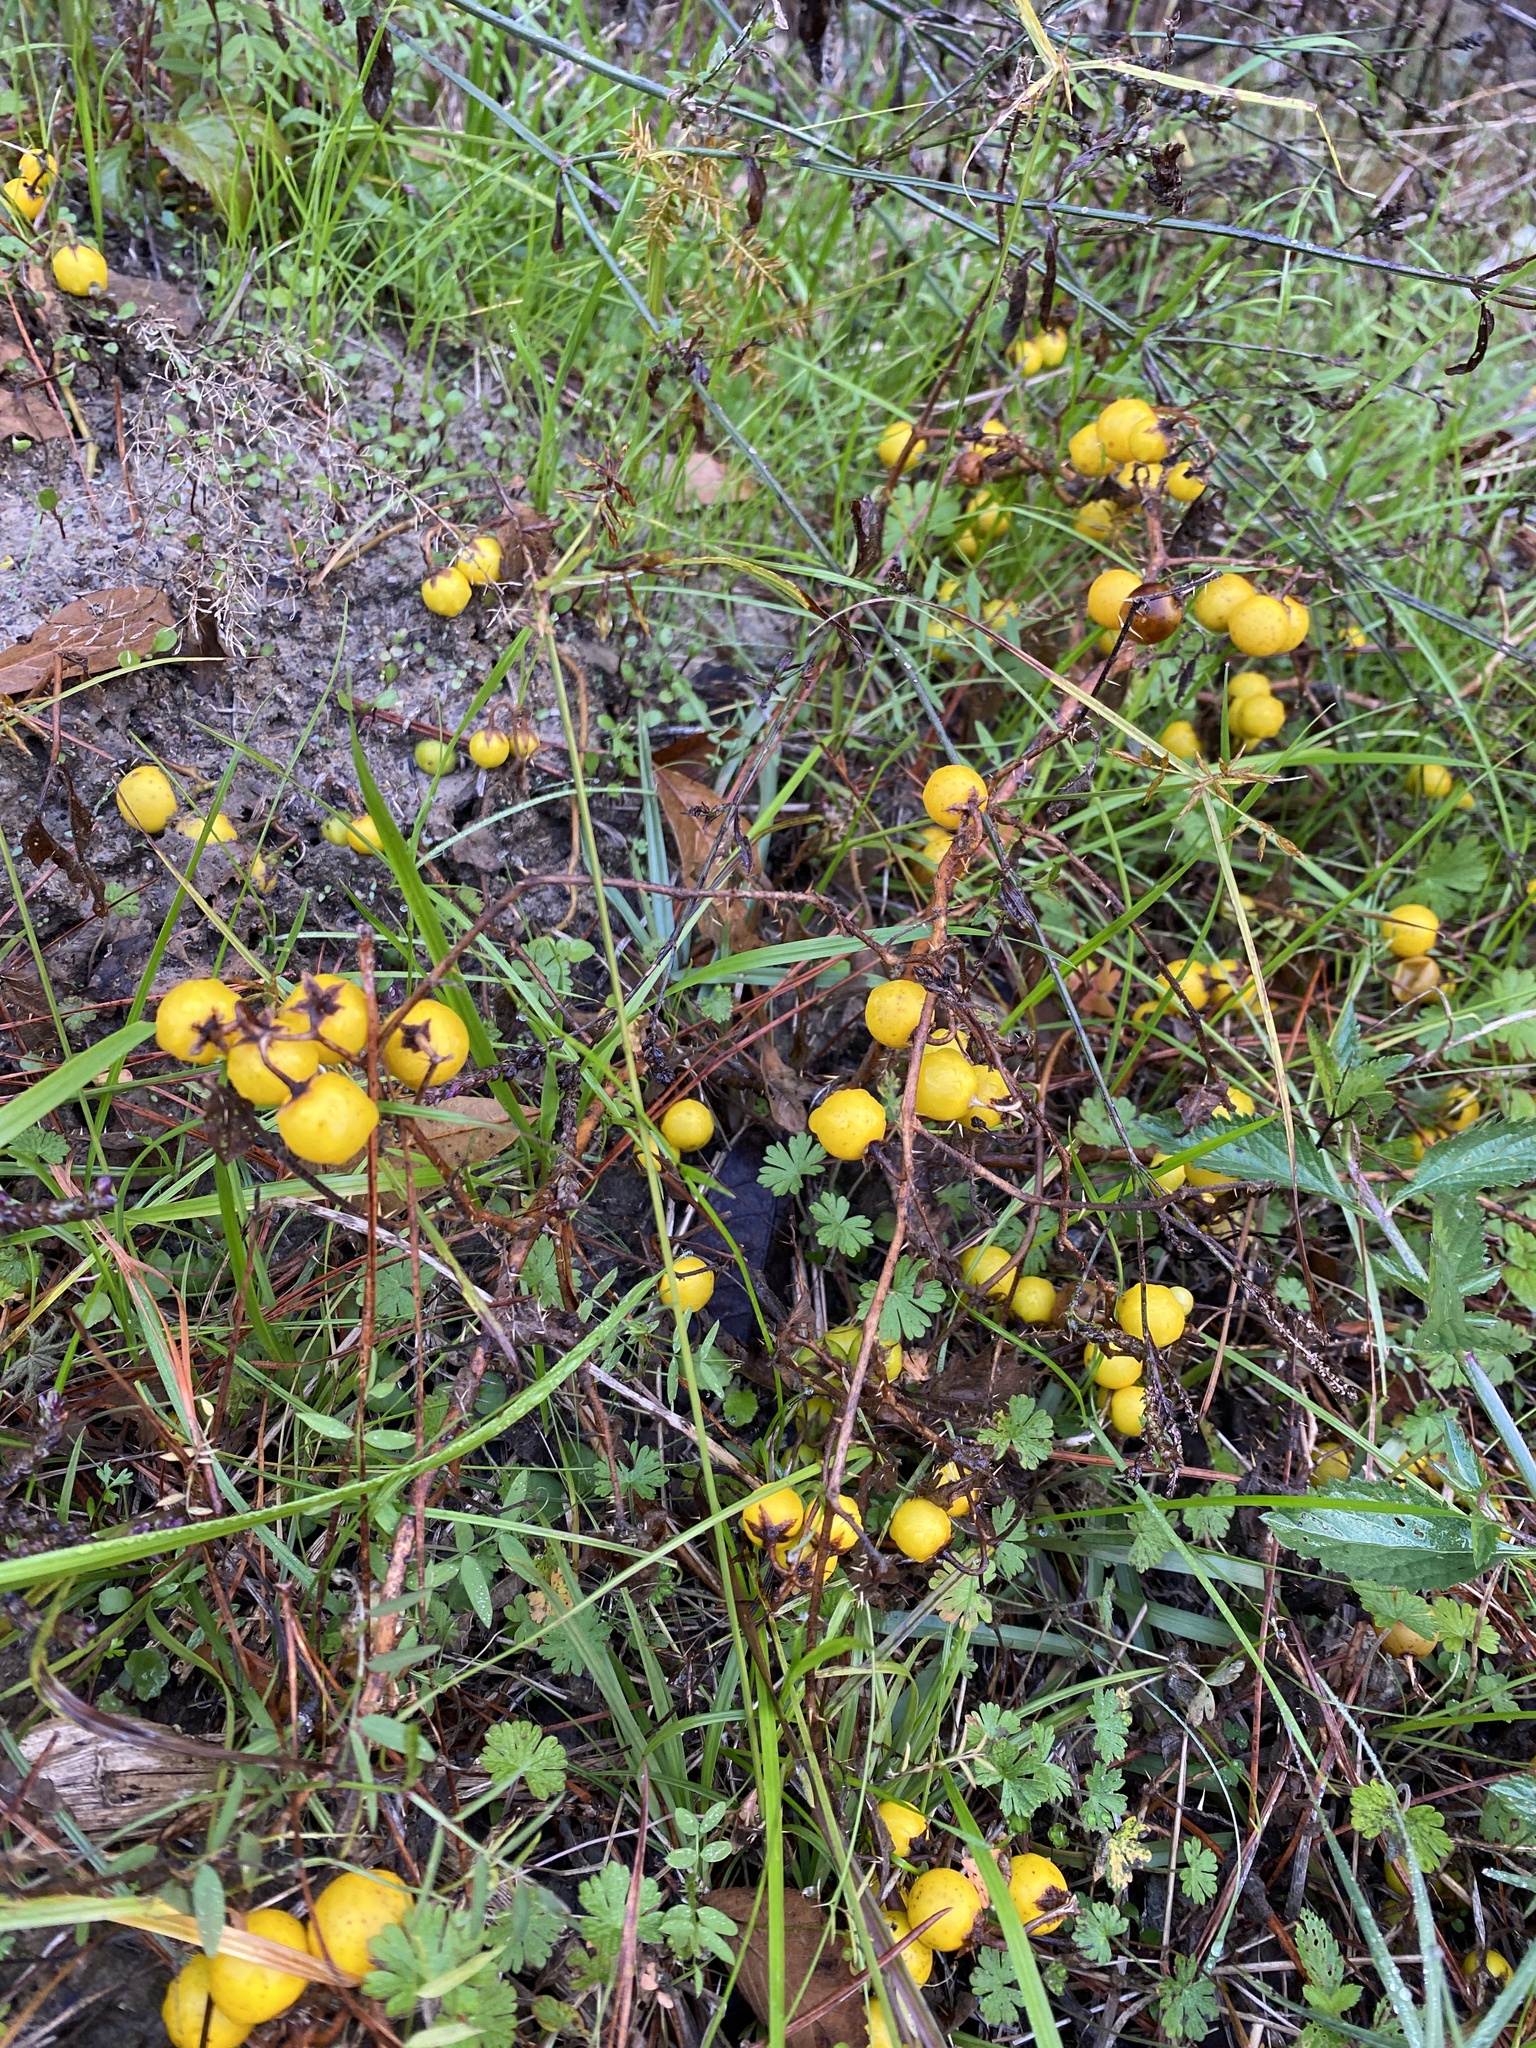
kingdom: Plantae
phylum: Tracheophyta
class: Magnoliopsida
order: Solanales
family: Solanaceae
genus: Solanum
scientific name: Solanum carolinense
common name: Horse-nettle
